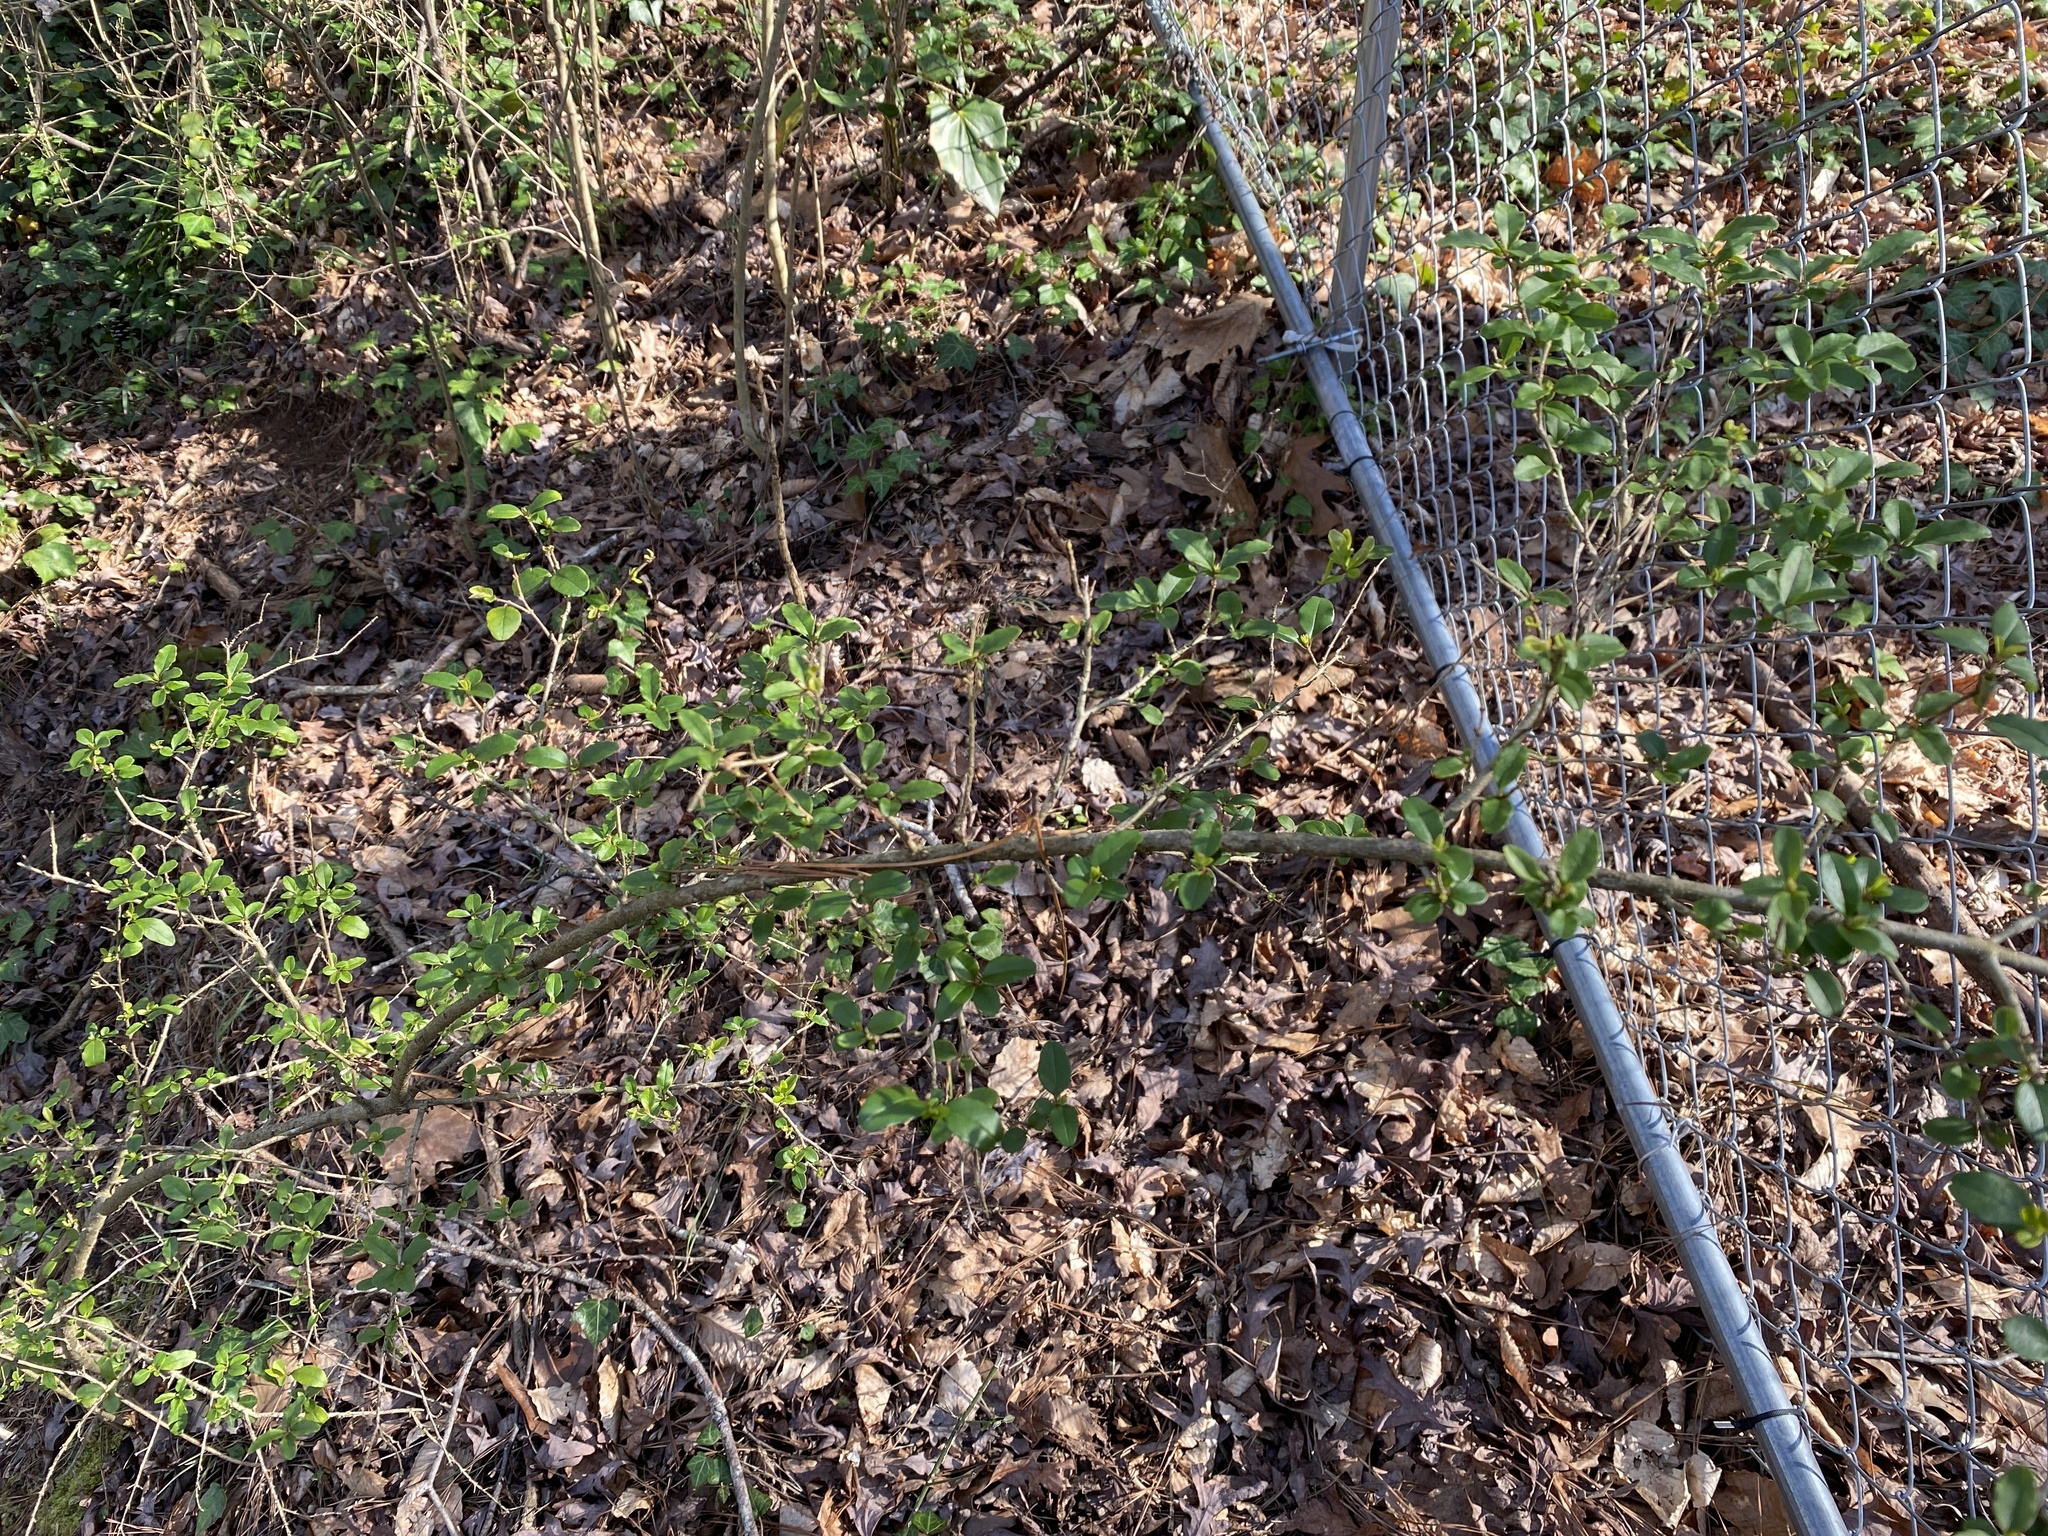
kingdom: Plantae
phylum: Tracheophyta
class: Magnoliopsida
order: Lamiales
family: Oleaceae
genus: Ligustrum
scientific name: Ligustrum sinense
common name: Chinese privet
